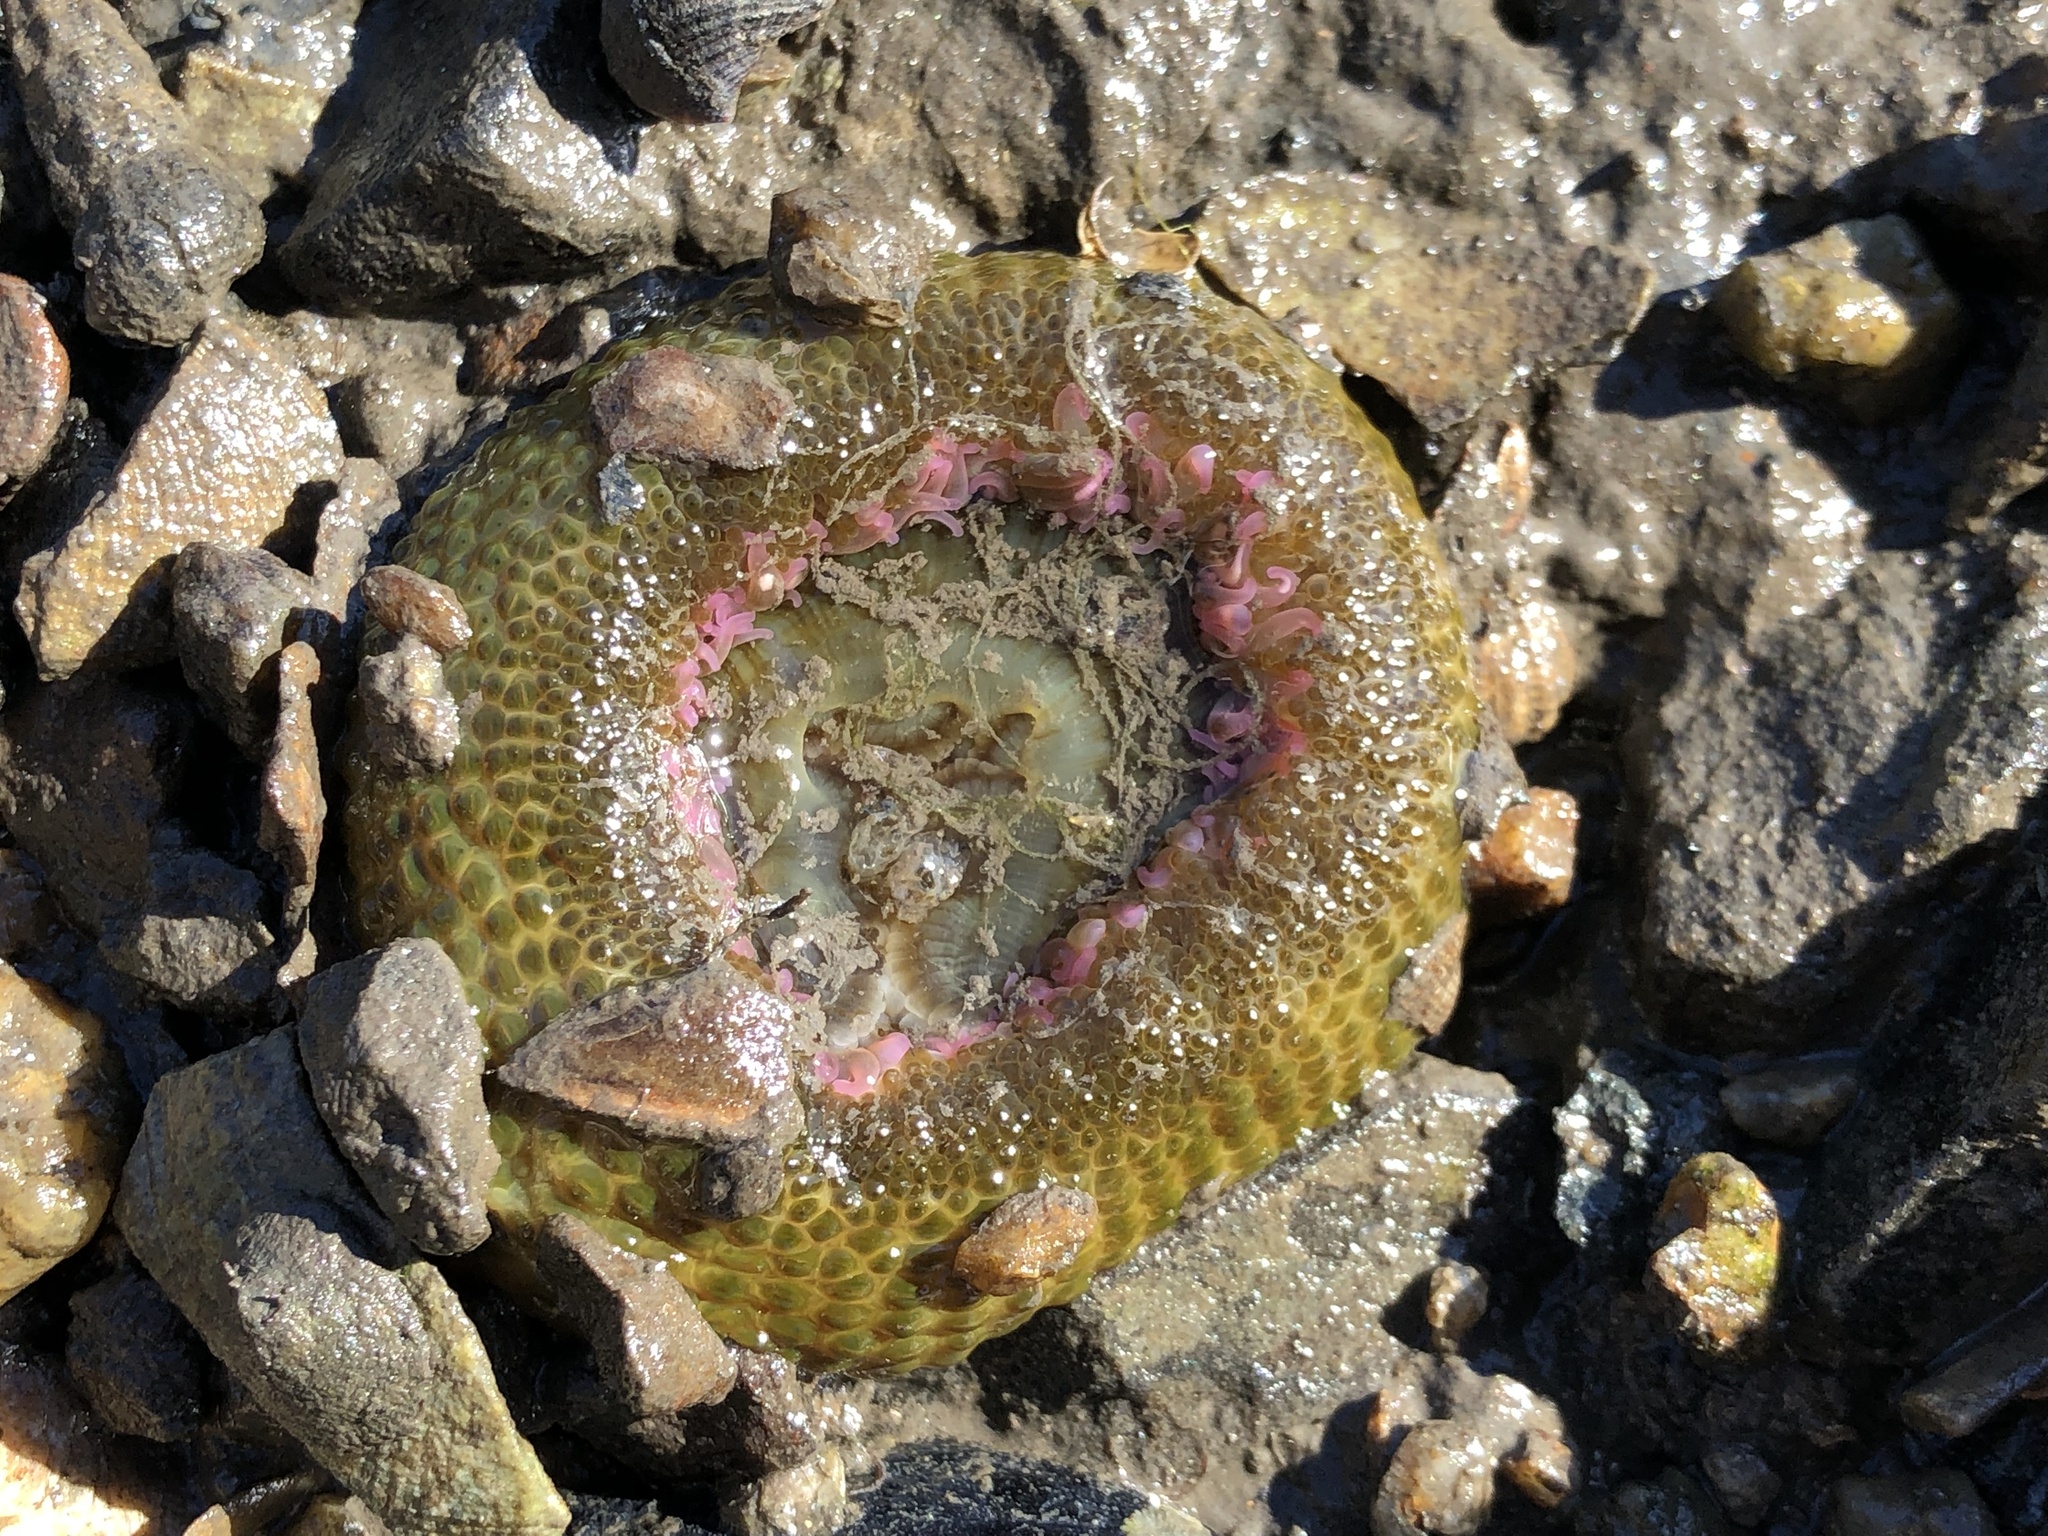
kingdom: Animalia
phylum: Cnidaria
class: Anthozoa
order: Actiniaria
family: Actiniidae
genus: Anthopleura
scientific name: Anthopleura elegantissima
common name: Clonal anemone
